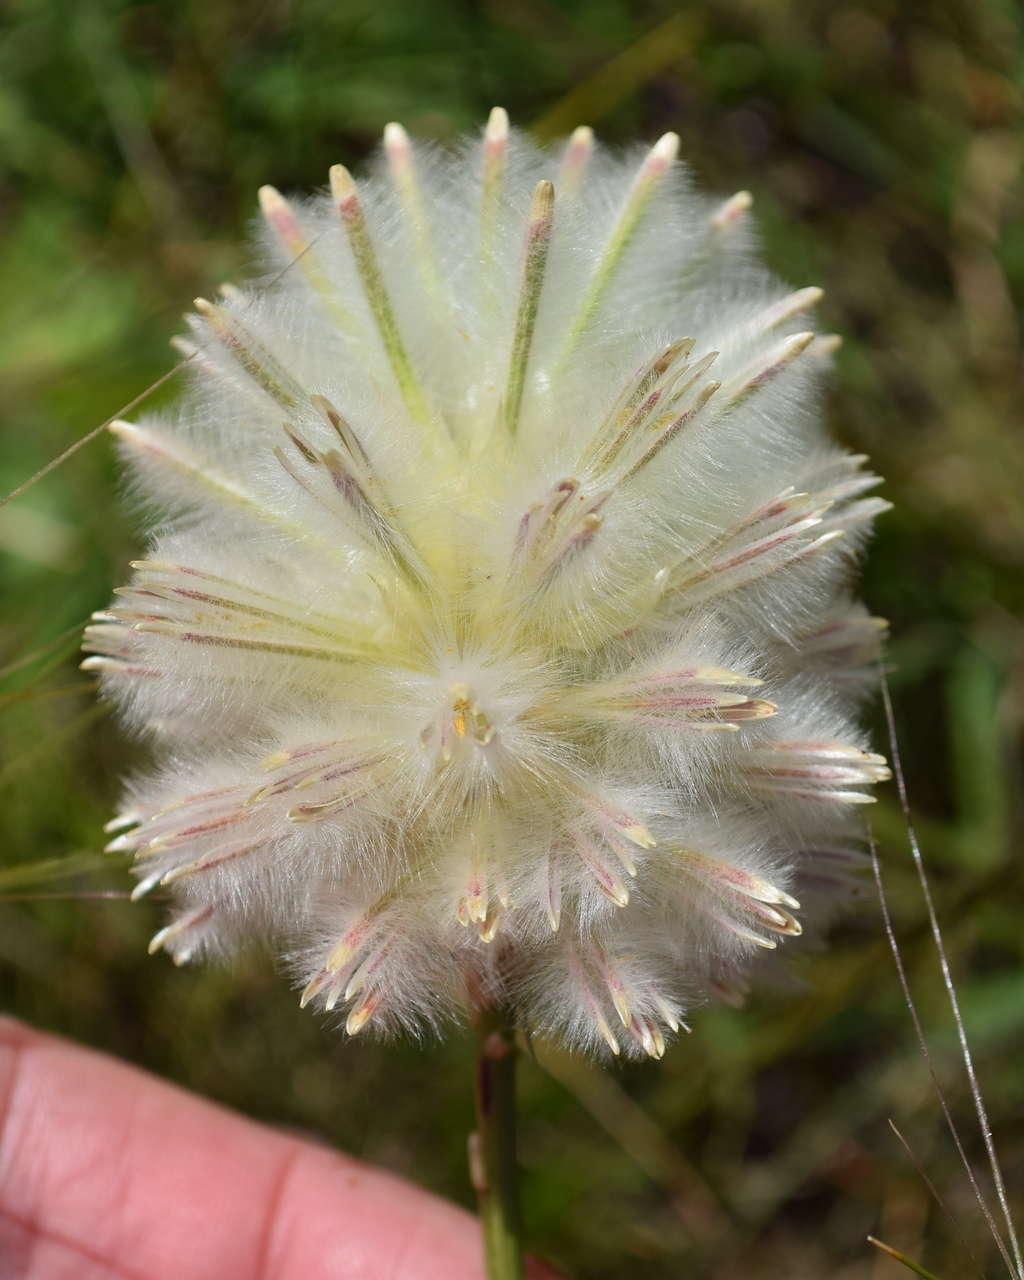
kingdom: Plantae
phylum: Tracheophyta
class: Magnoliopsida
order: Caryophyllales
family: Amaranthaceae
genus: Ptilotus
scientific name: Ptilotus macrocephalus
